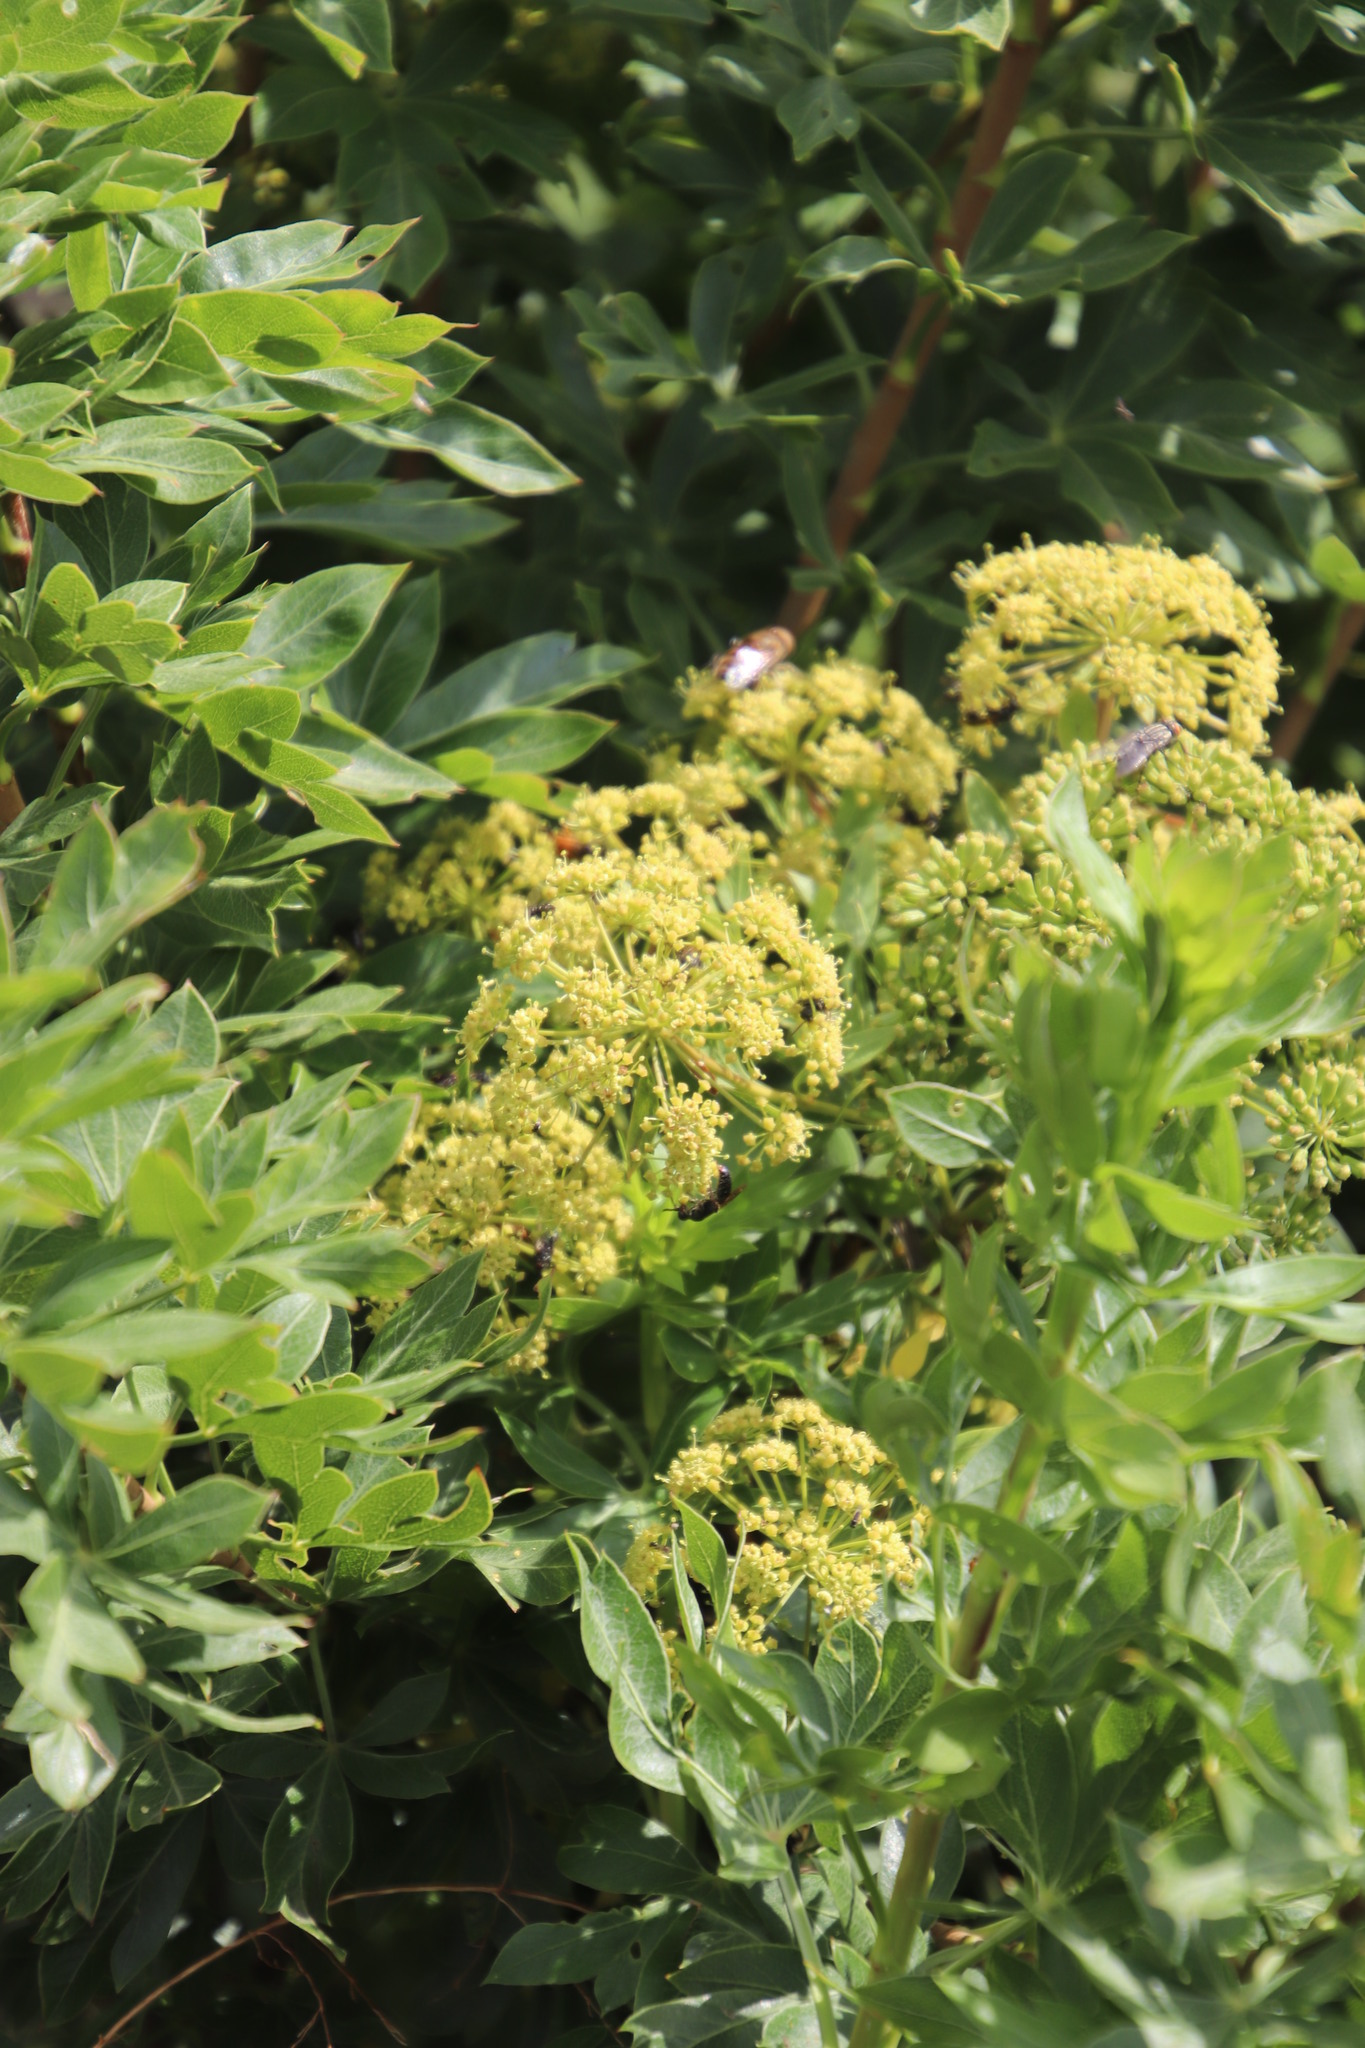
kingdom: Plantae
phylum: Tracheophyta
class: Magnoliopsida
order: Apiales
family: Apiaceae
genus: Heteromorpha
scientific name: Heteromorpha arborescens
